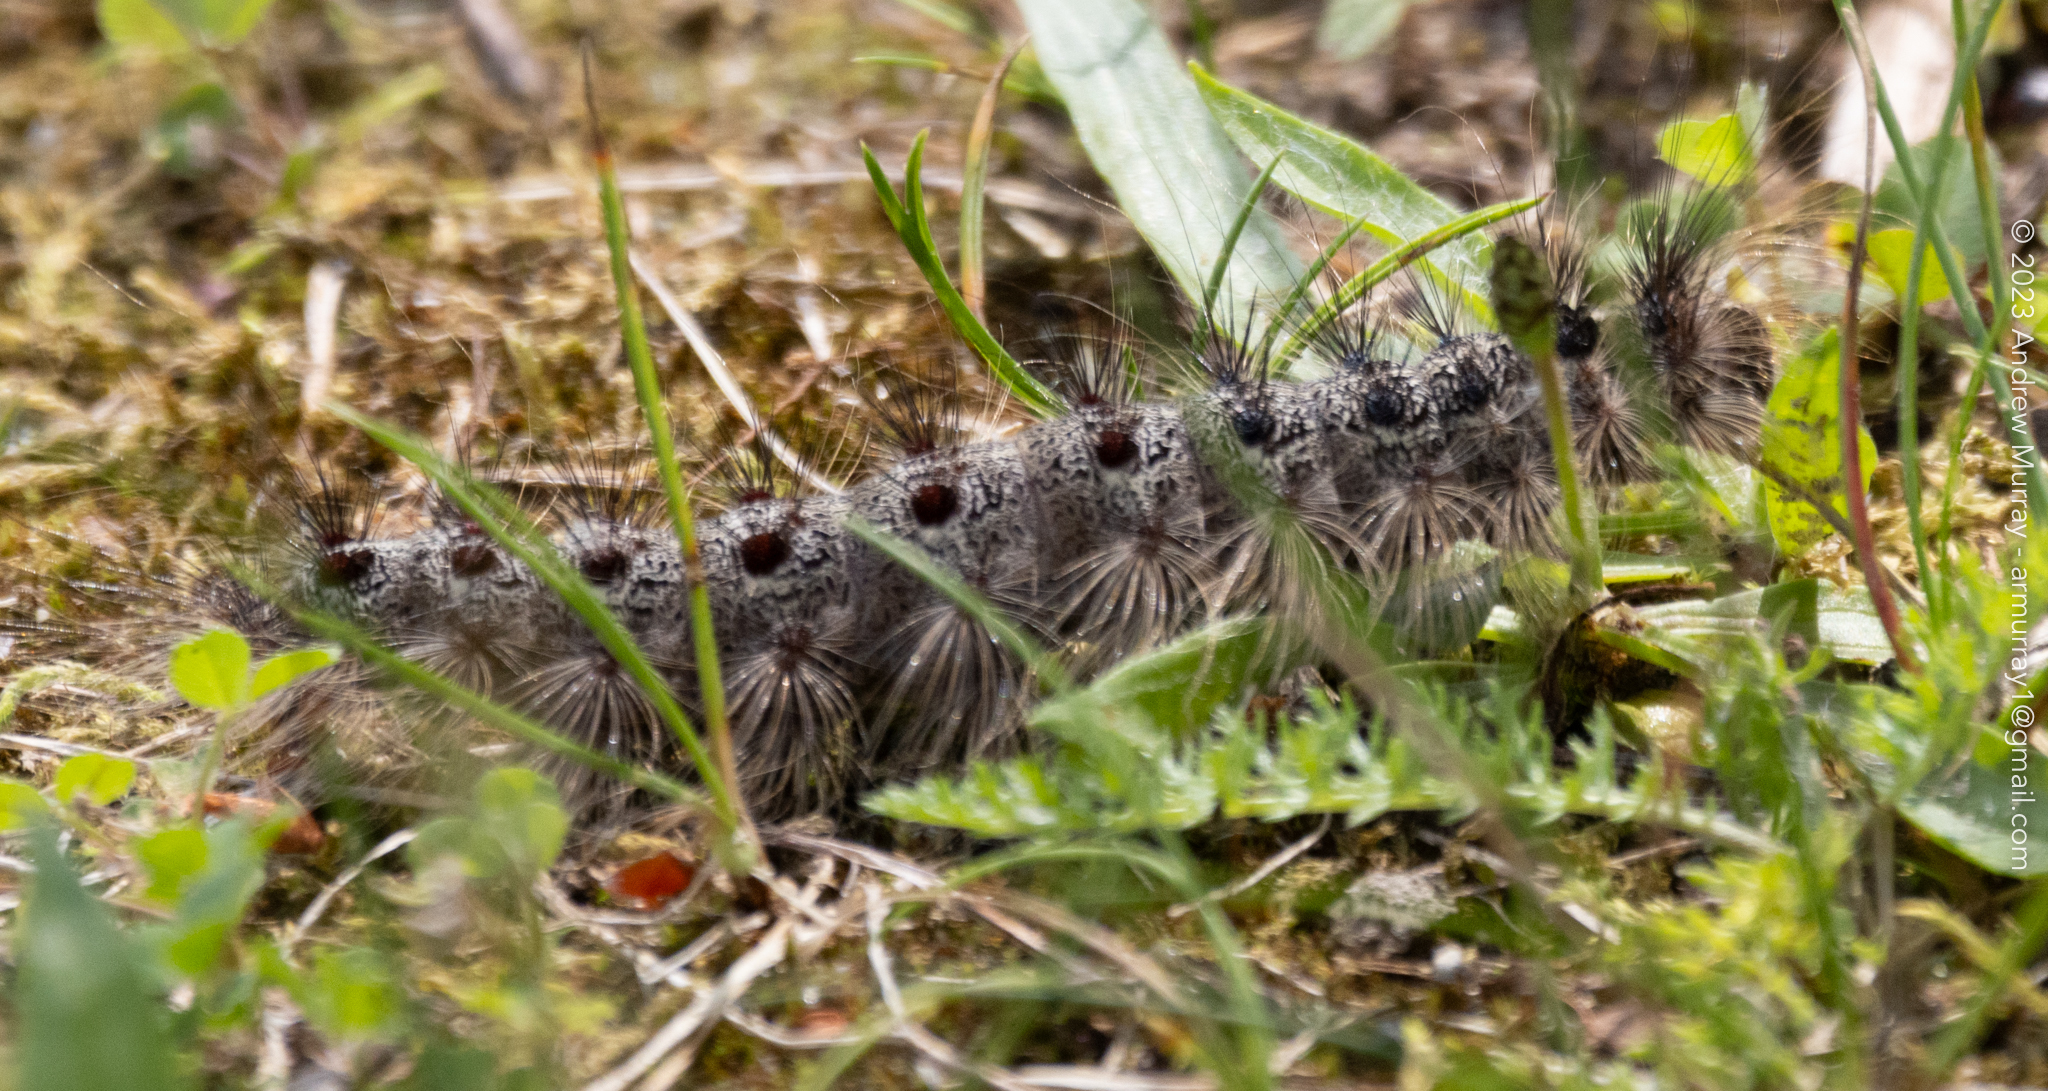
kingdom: Animalia
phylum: Arthropoda
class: Insecta
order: Lepidoptera
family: Erebidae
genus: Lymantria
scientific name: Lymantria dispar
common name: Gypsy moth
